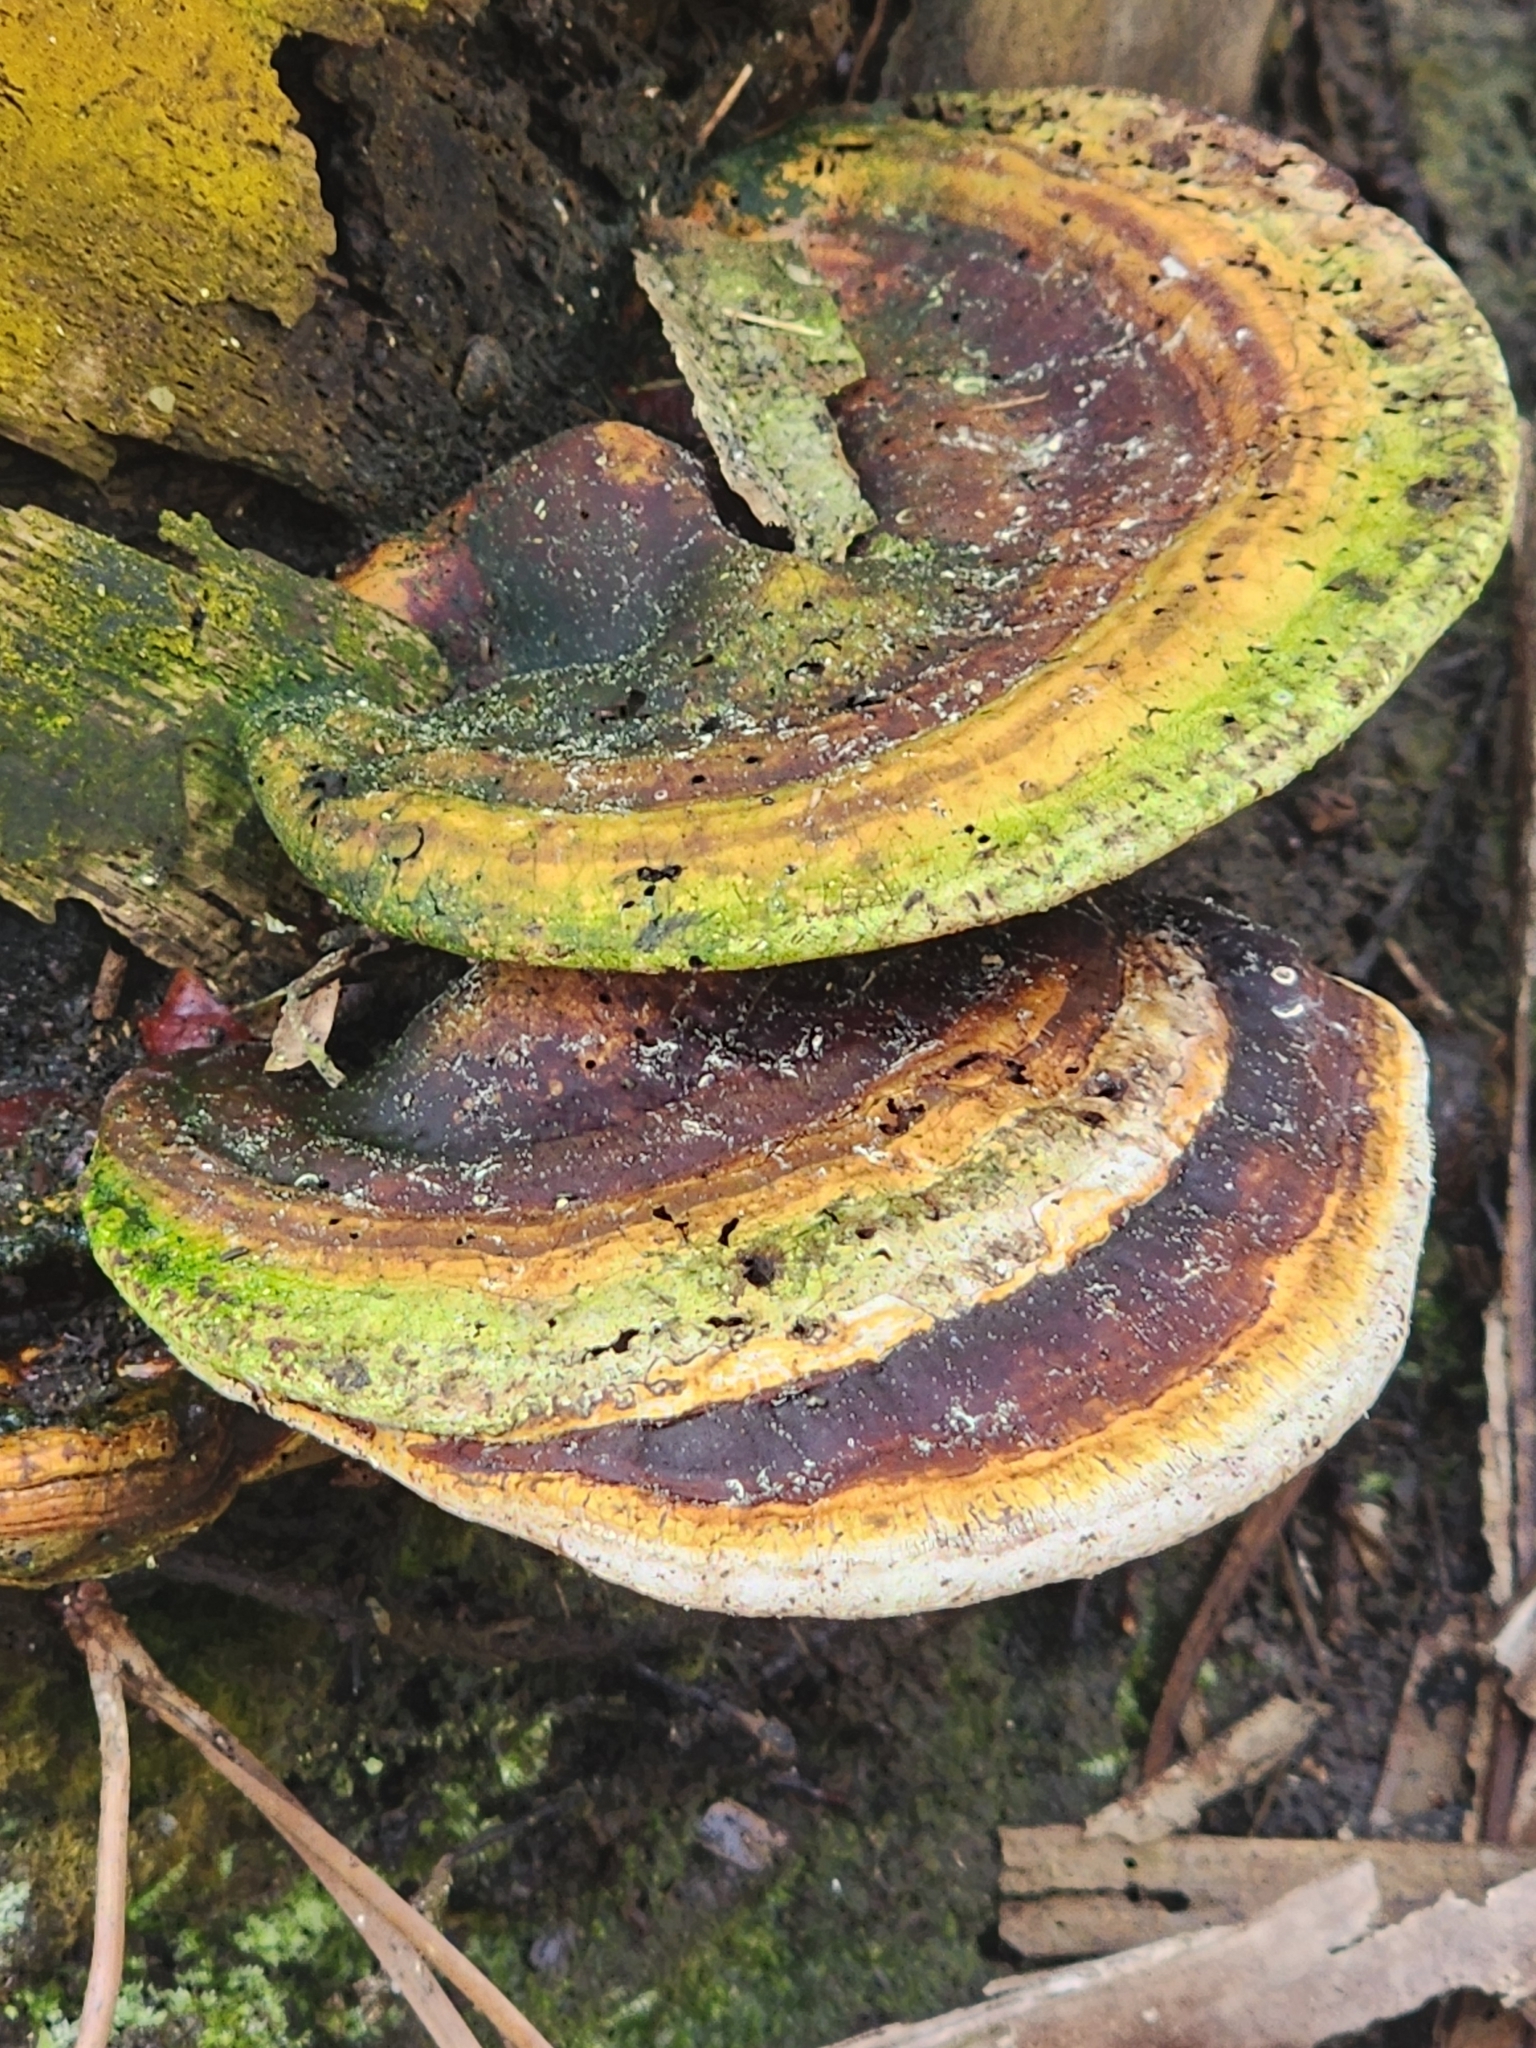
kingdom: Fungi
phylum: Basidiomycota
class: Agaricomycetes
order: Polyporales
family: Polyporaceae
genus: Ganoderma
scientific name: Ganoderma zonatum
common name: Ganoderma butt rot
